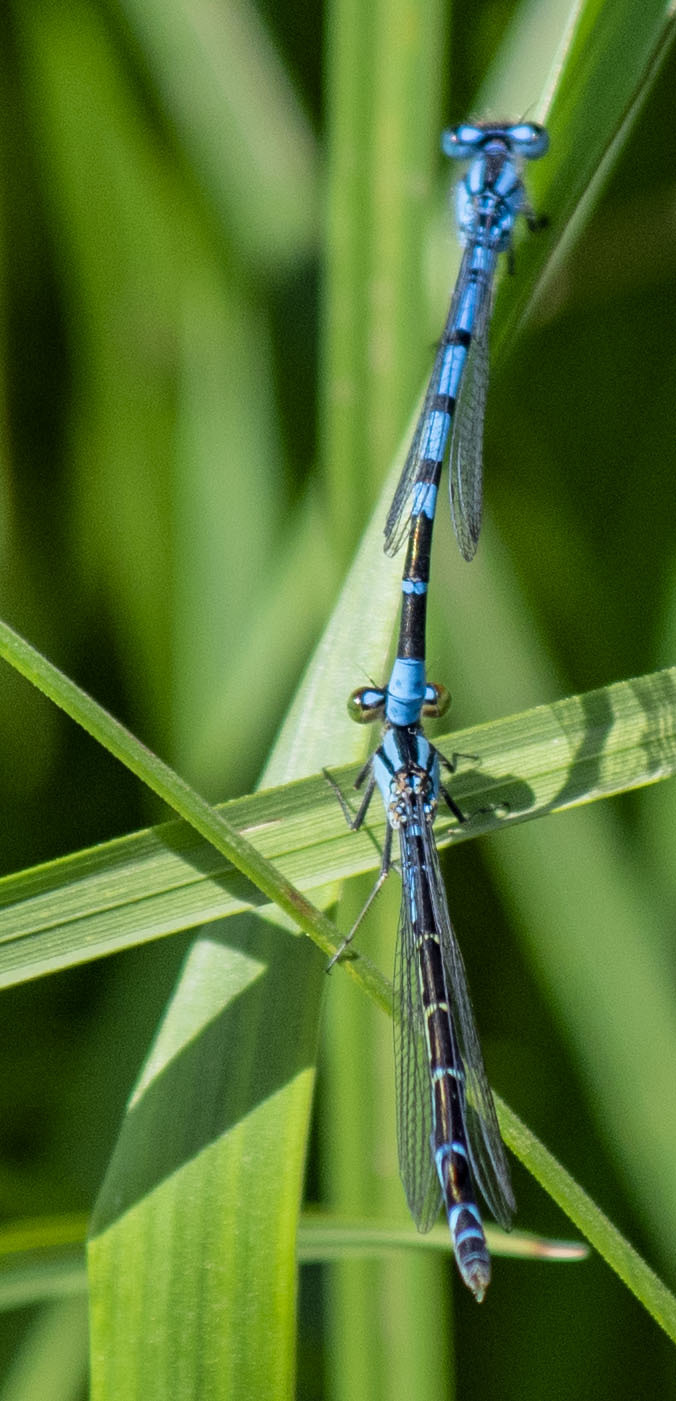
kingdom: Animalia
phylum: Arthropoda
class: Insecta
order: Odonata
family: Coenagrionidae
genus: Enallagma
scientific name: Enallagma cyathigerum
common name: Common blue damselfly
